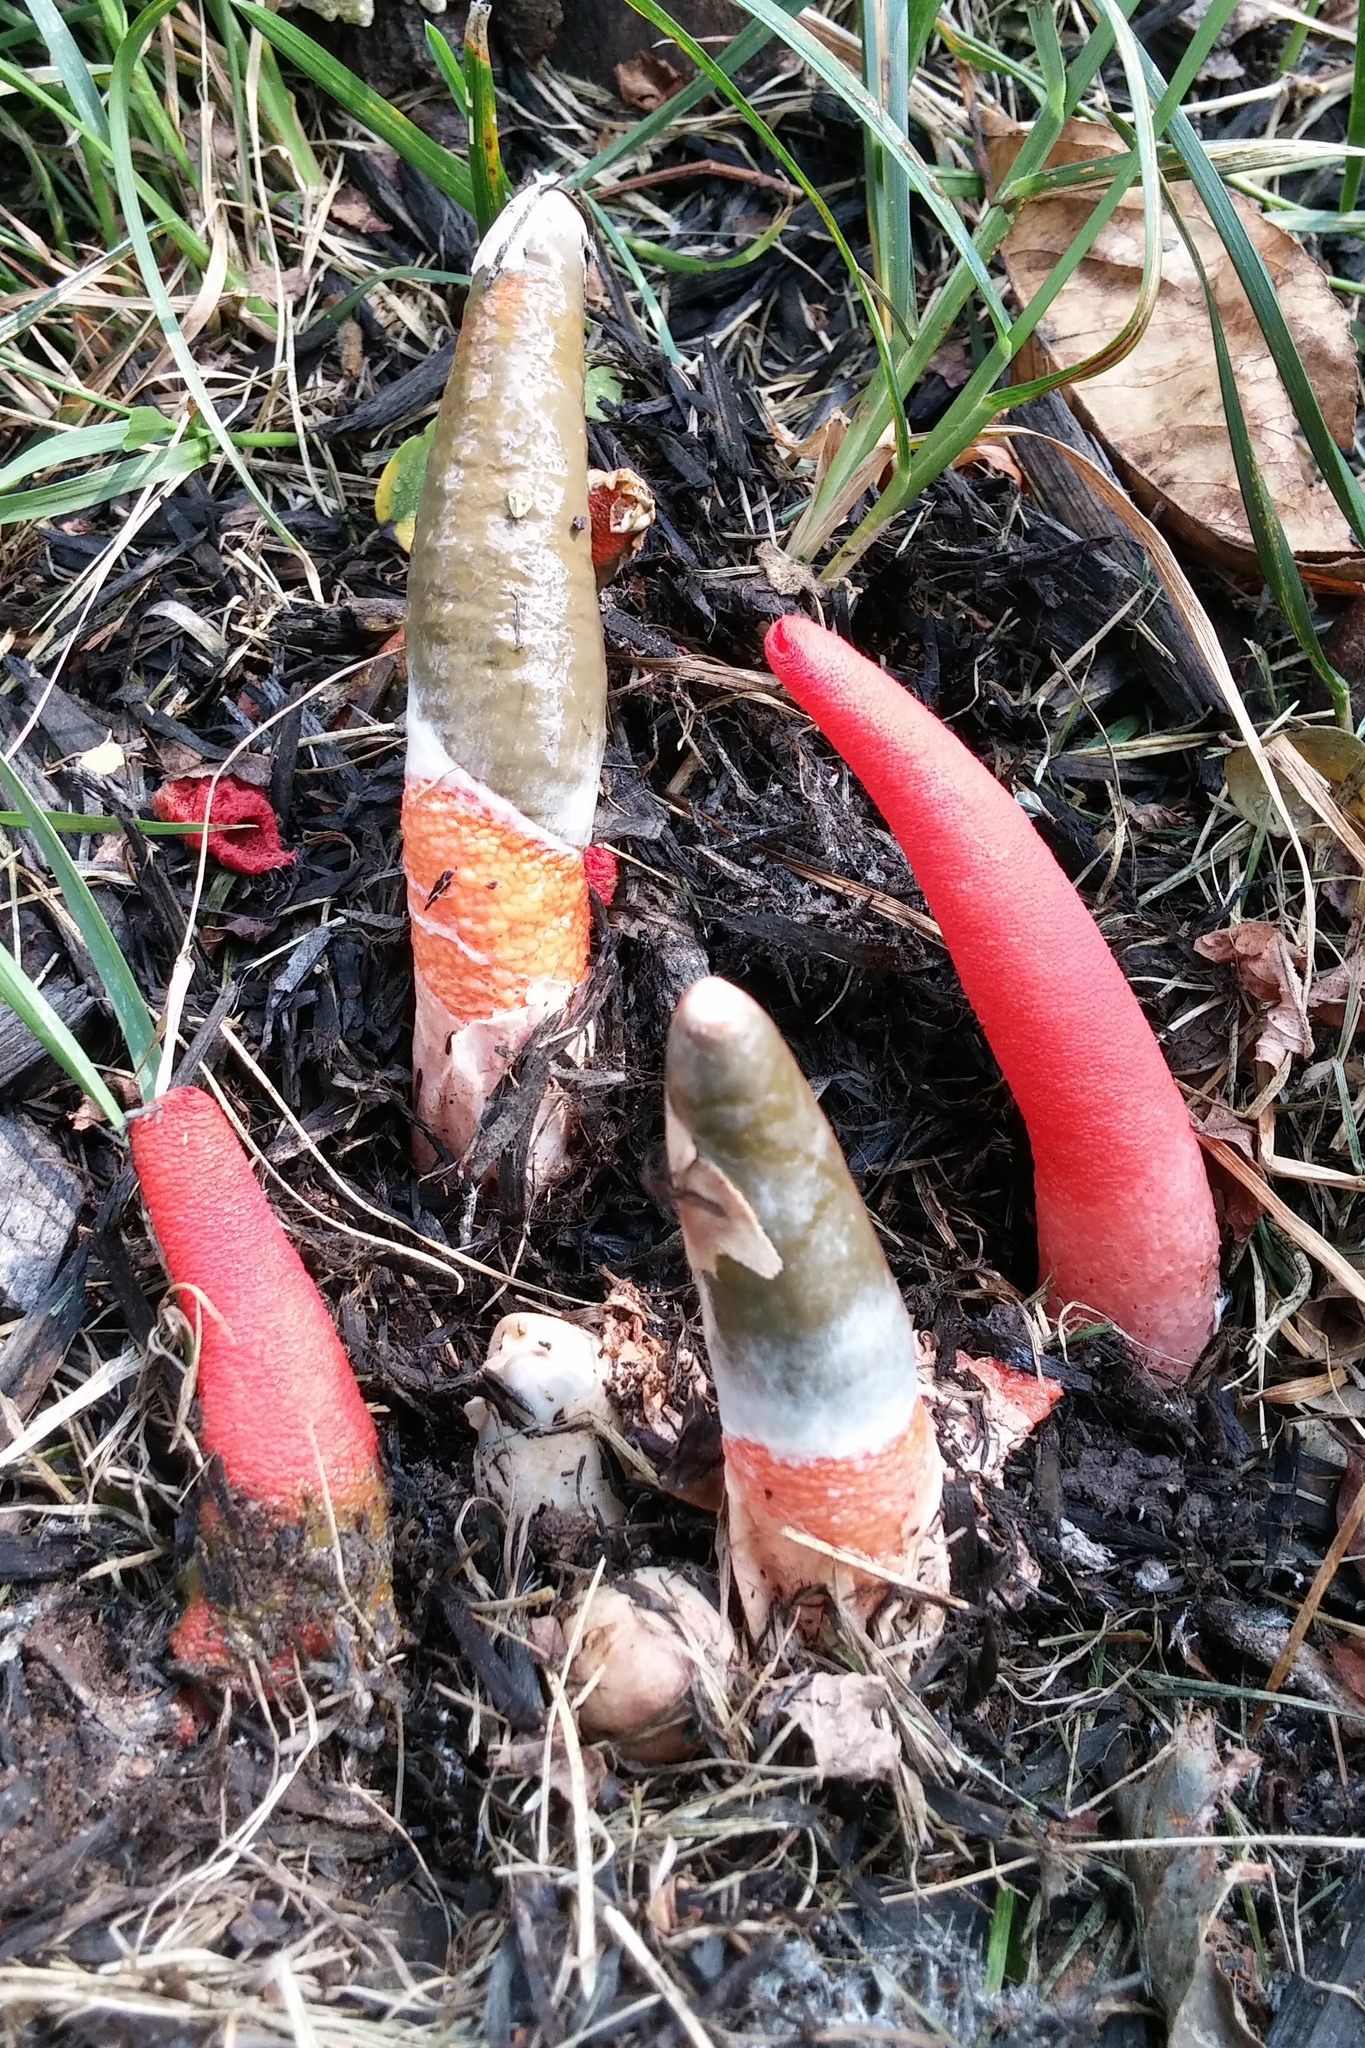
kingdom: Fungi
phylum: Basidiomycota
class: Agaricomycetes
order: Phallales
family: Phallaceae
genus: Mutinus
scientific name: Mutinus elegans
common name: Devil's dipstick
